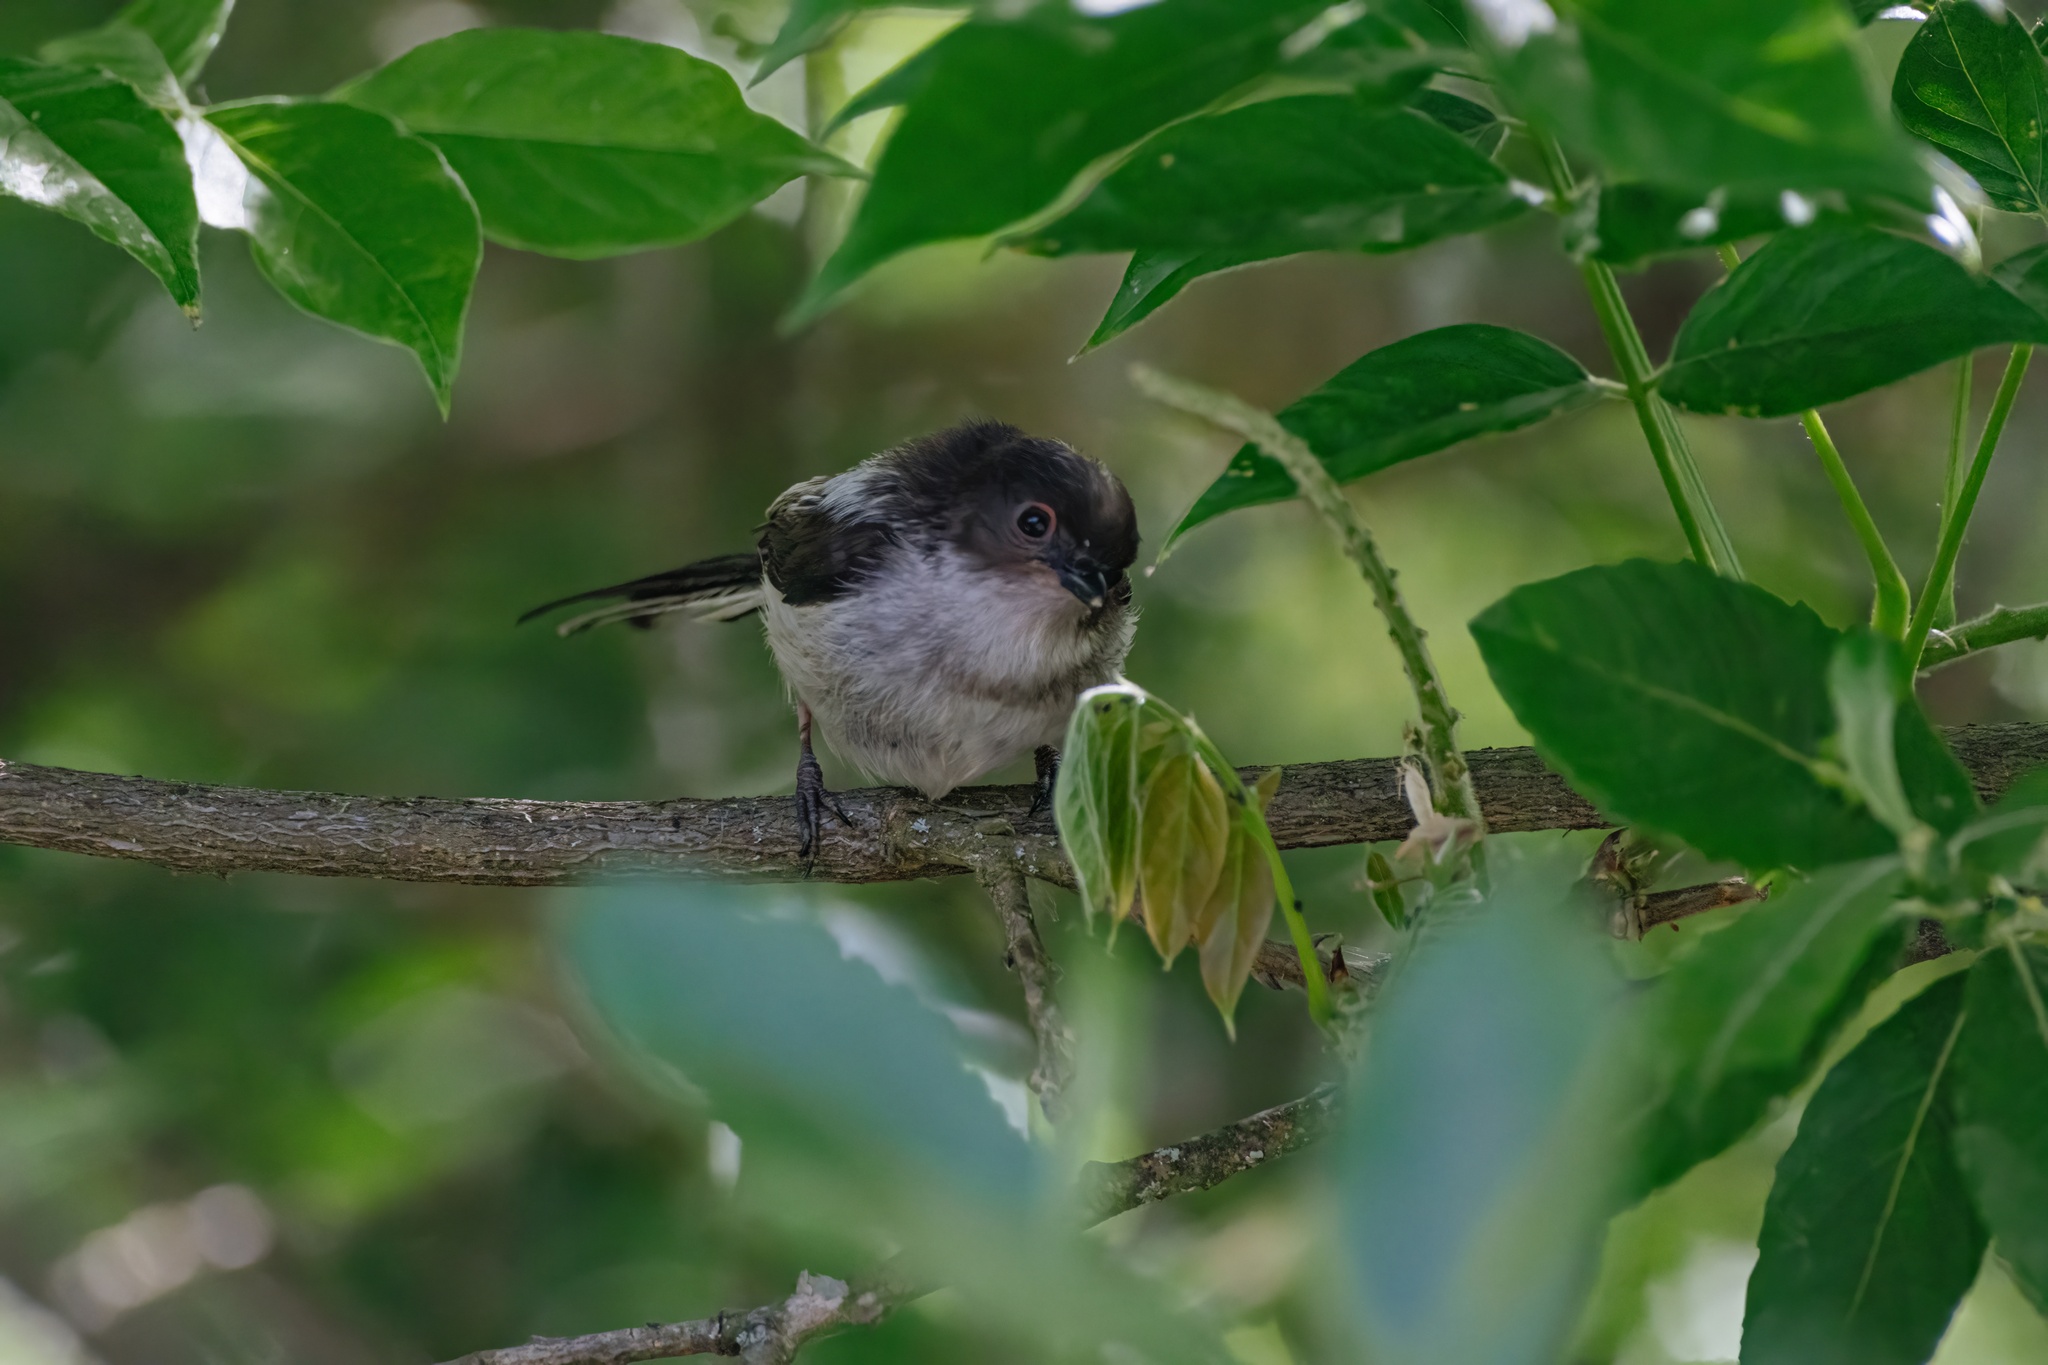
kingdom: Animalia
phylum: Chordata
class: Aves
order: Passeriformes
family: Aegithalidae
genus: Aegithalos
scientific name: Aegithalos caudatus
